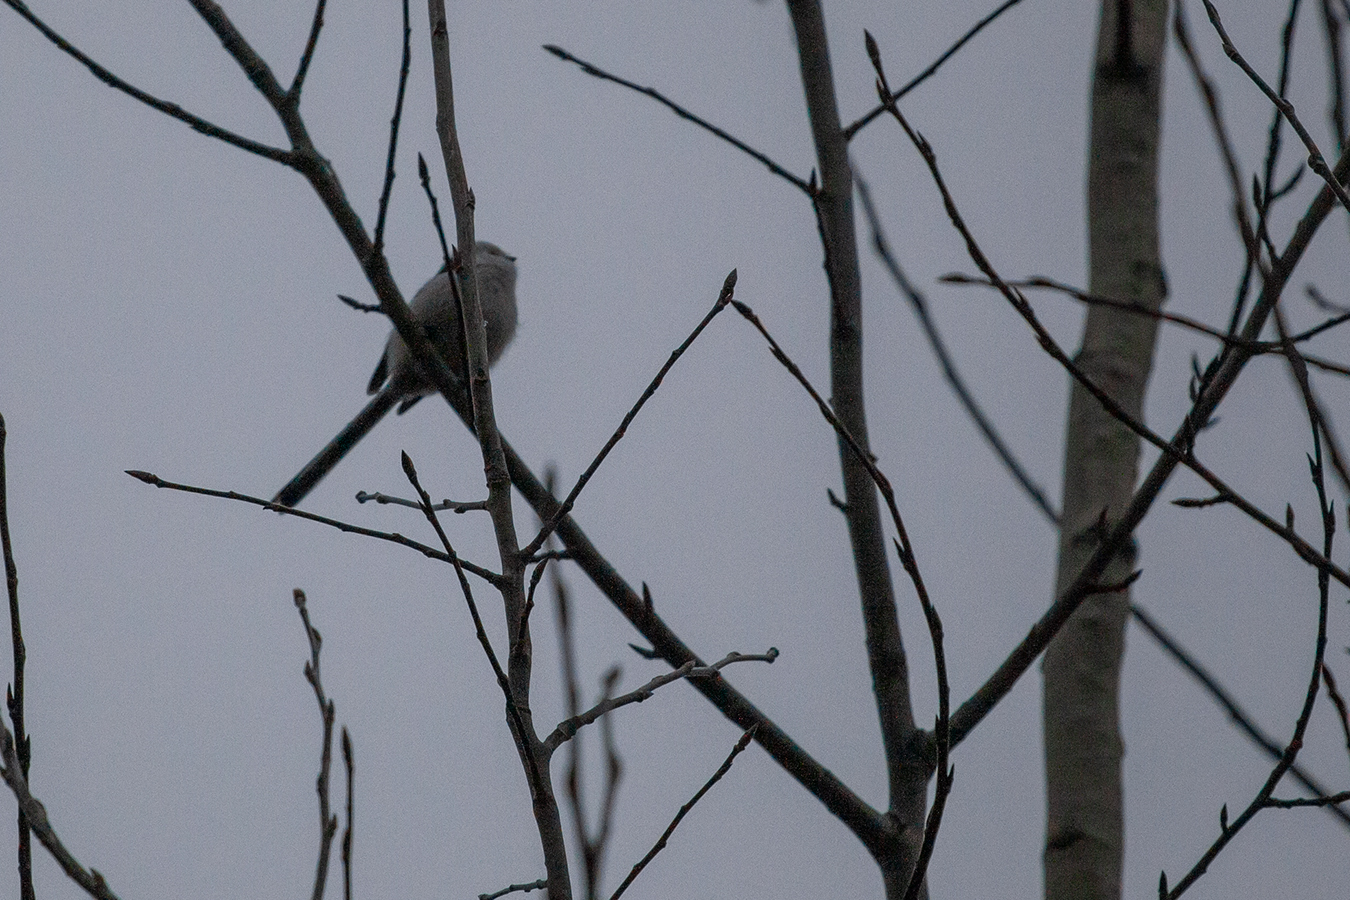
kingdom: Animalia
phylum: Chordata
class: Aves
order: Passeriformes
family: Aegithalidae
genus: Aegithalos
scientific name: Aegithalos caudatus
